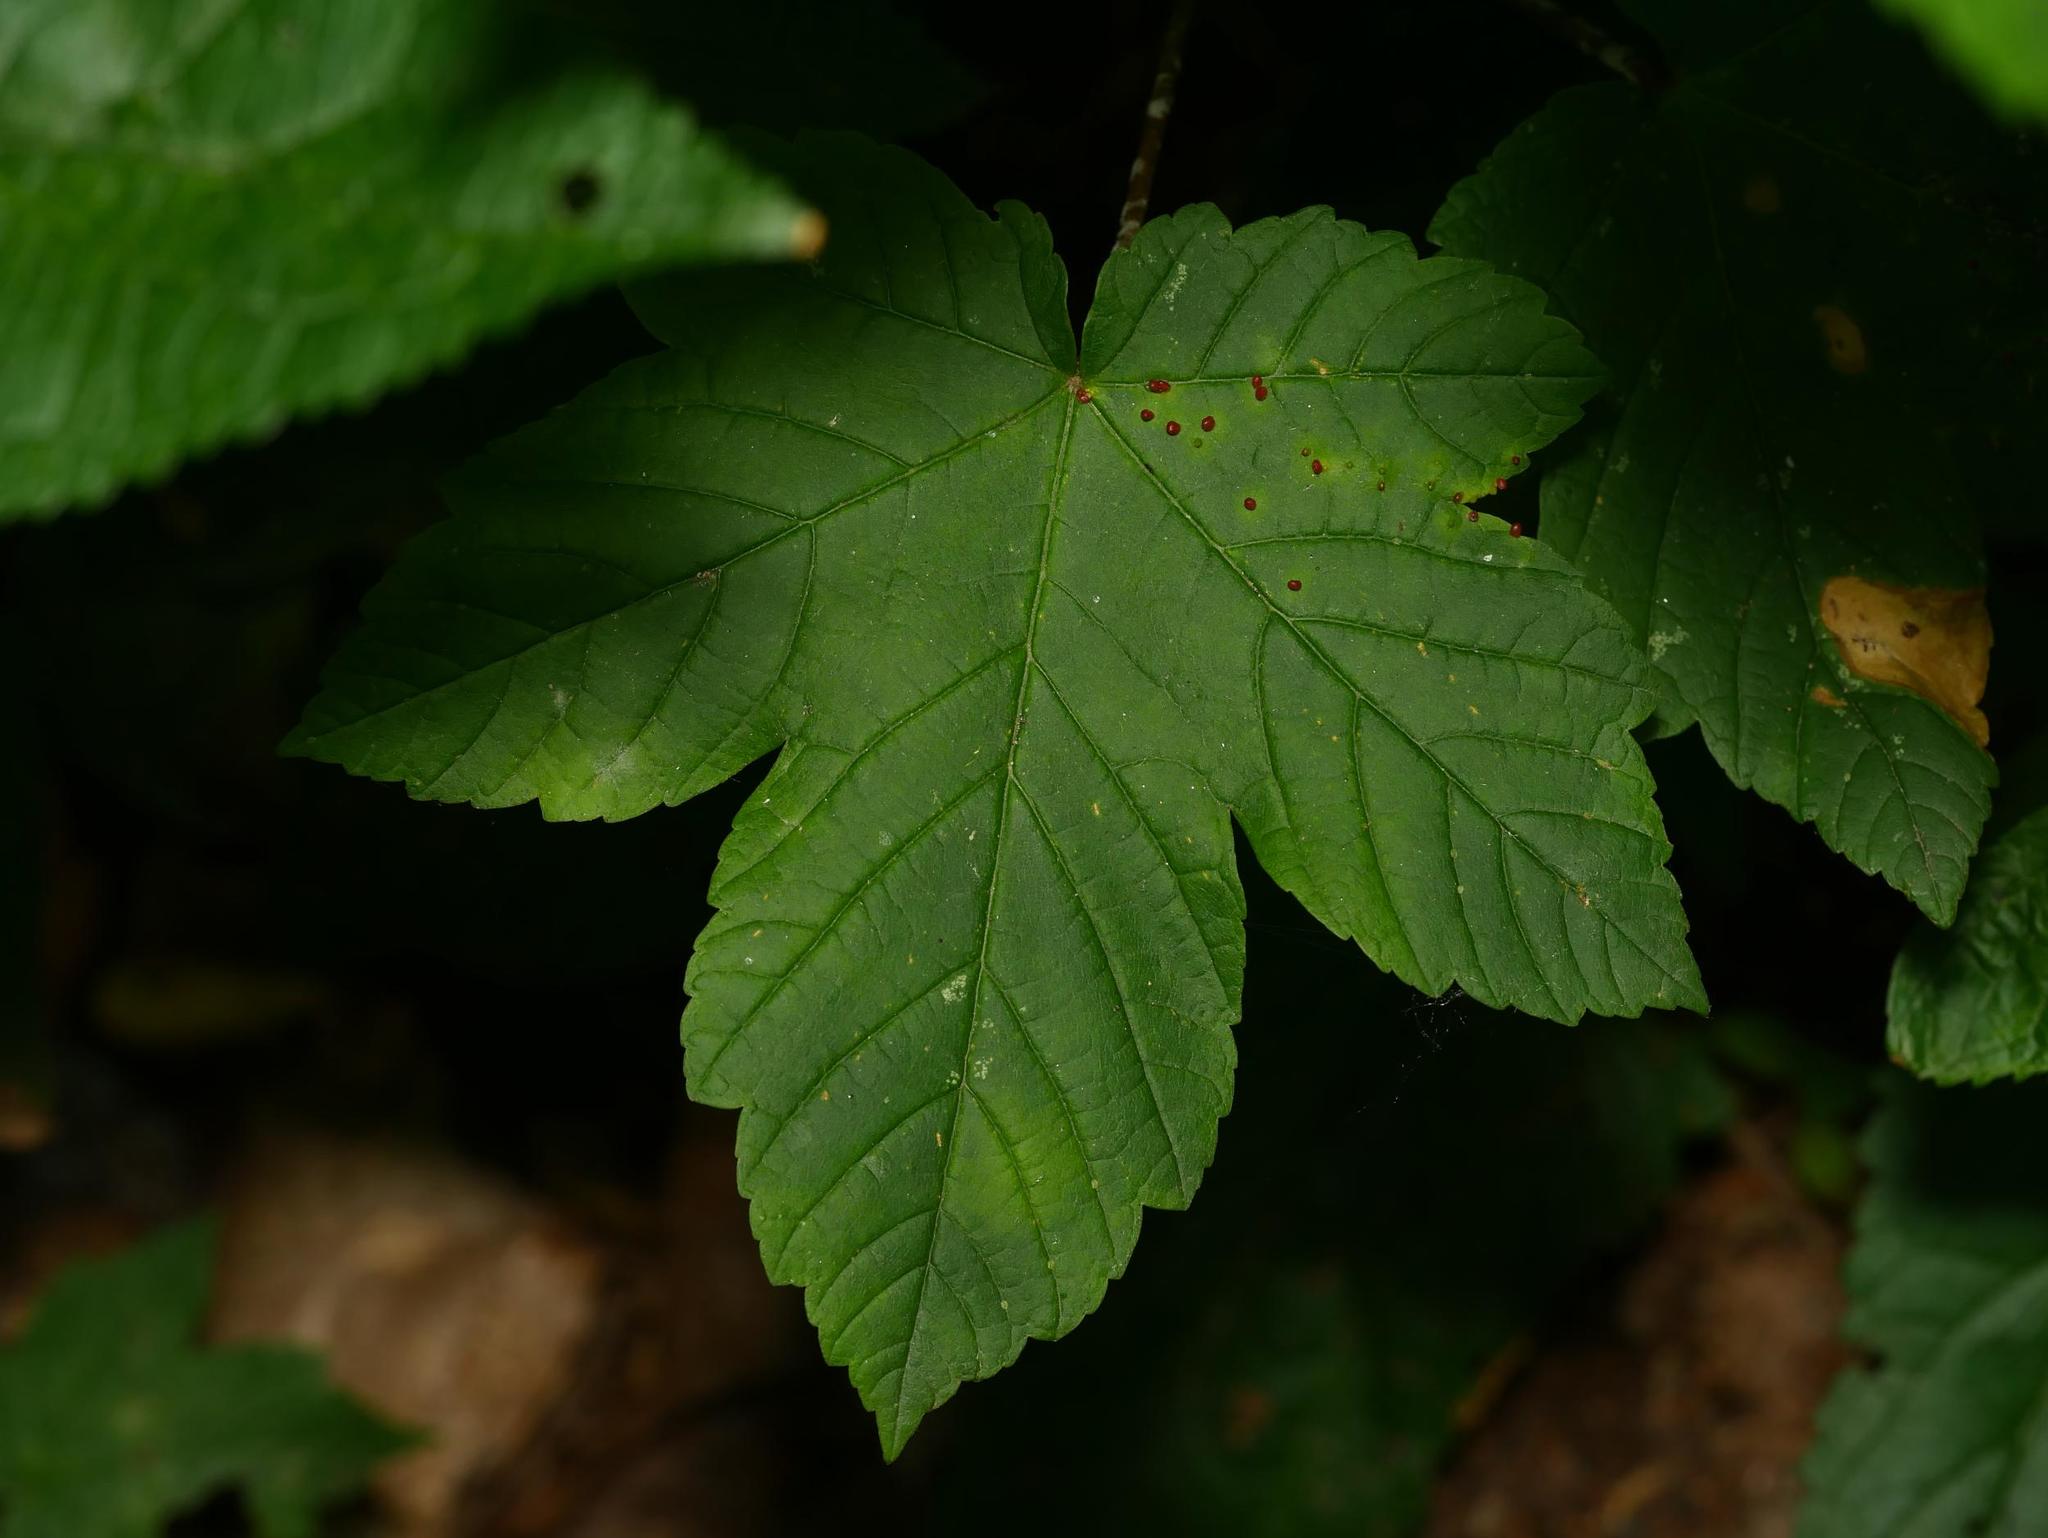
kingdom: Plantae
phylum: Tracheophyta
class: Magnoliopsida
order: Sapindales
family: Sapindaceae
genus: Acer
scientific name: Acer pseudoplatanus
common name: Sycamore
